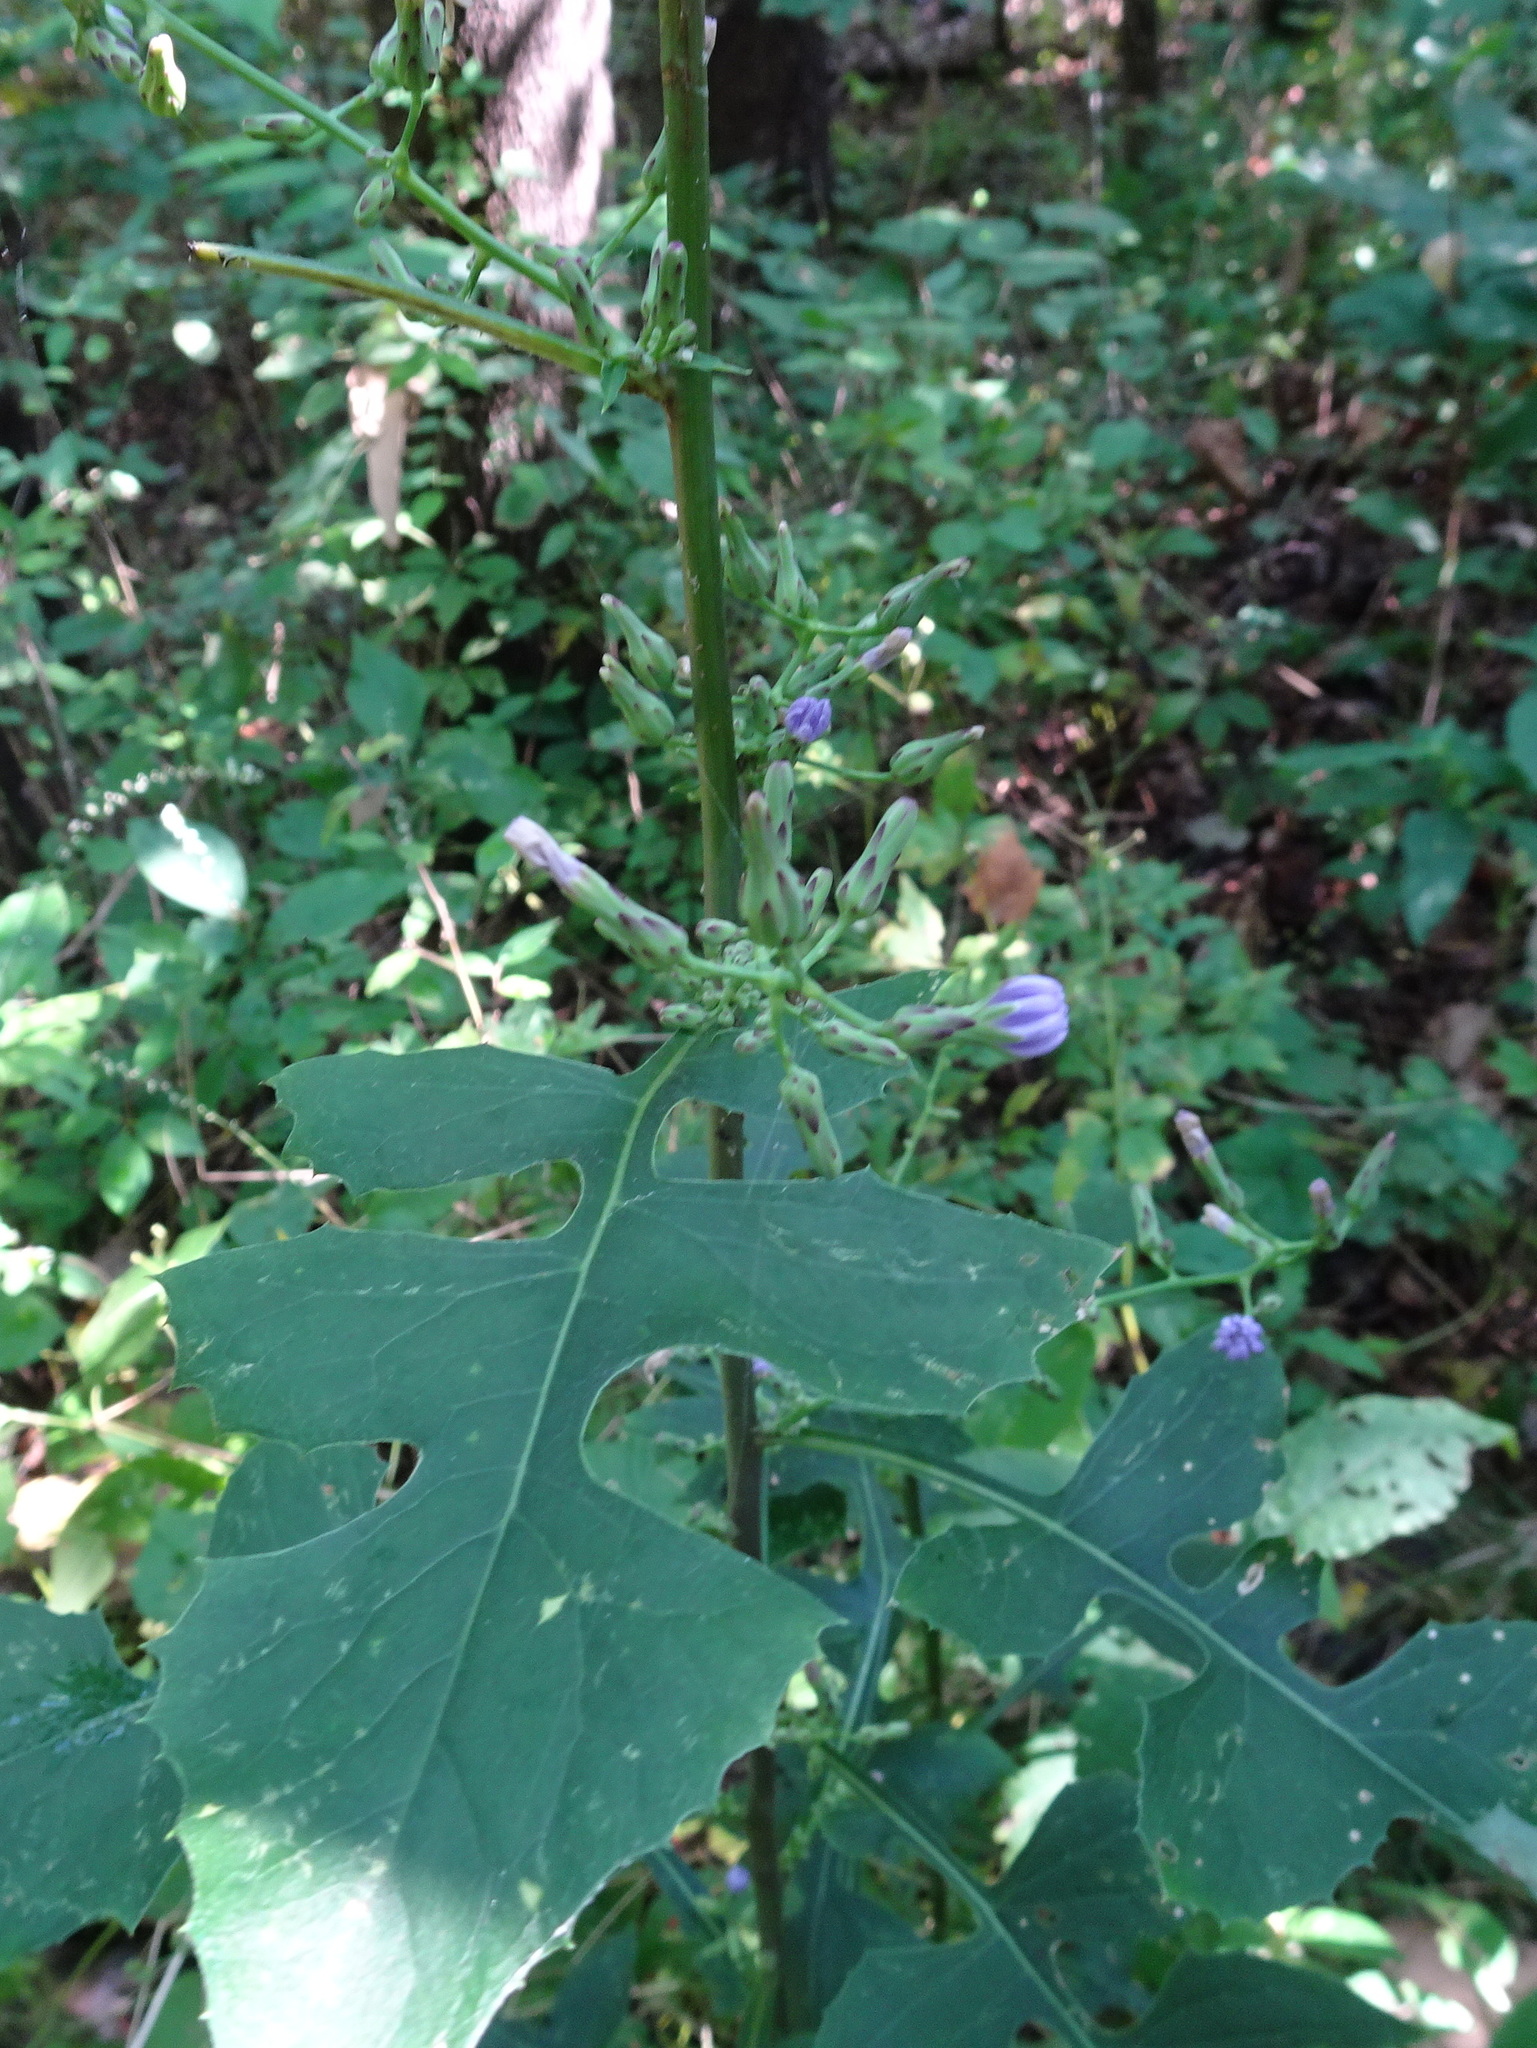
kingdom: Plantae
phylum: Tracheophyta
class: Magnoliopsida
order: Asterales
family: Asteraceae
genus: Lactuca
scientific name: Lactuca floridana
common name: Woodland lettuce
